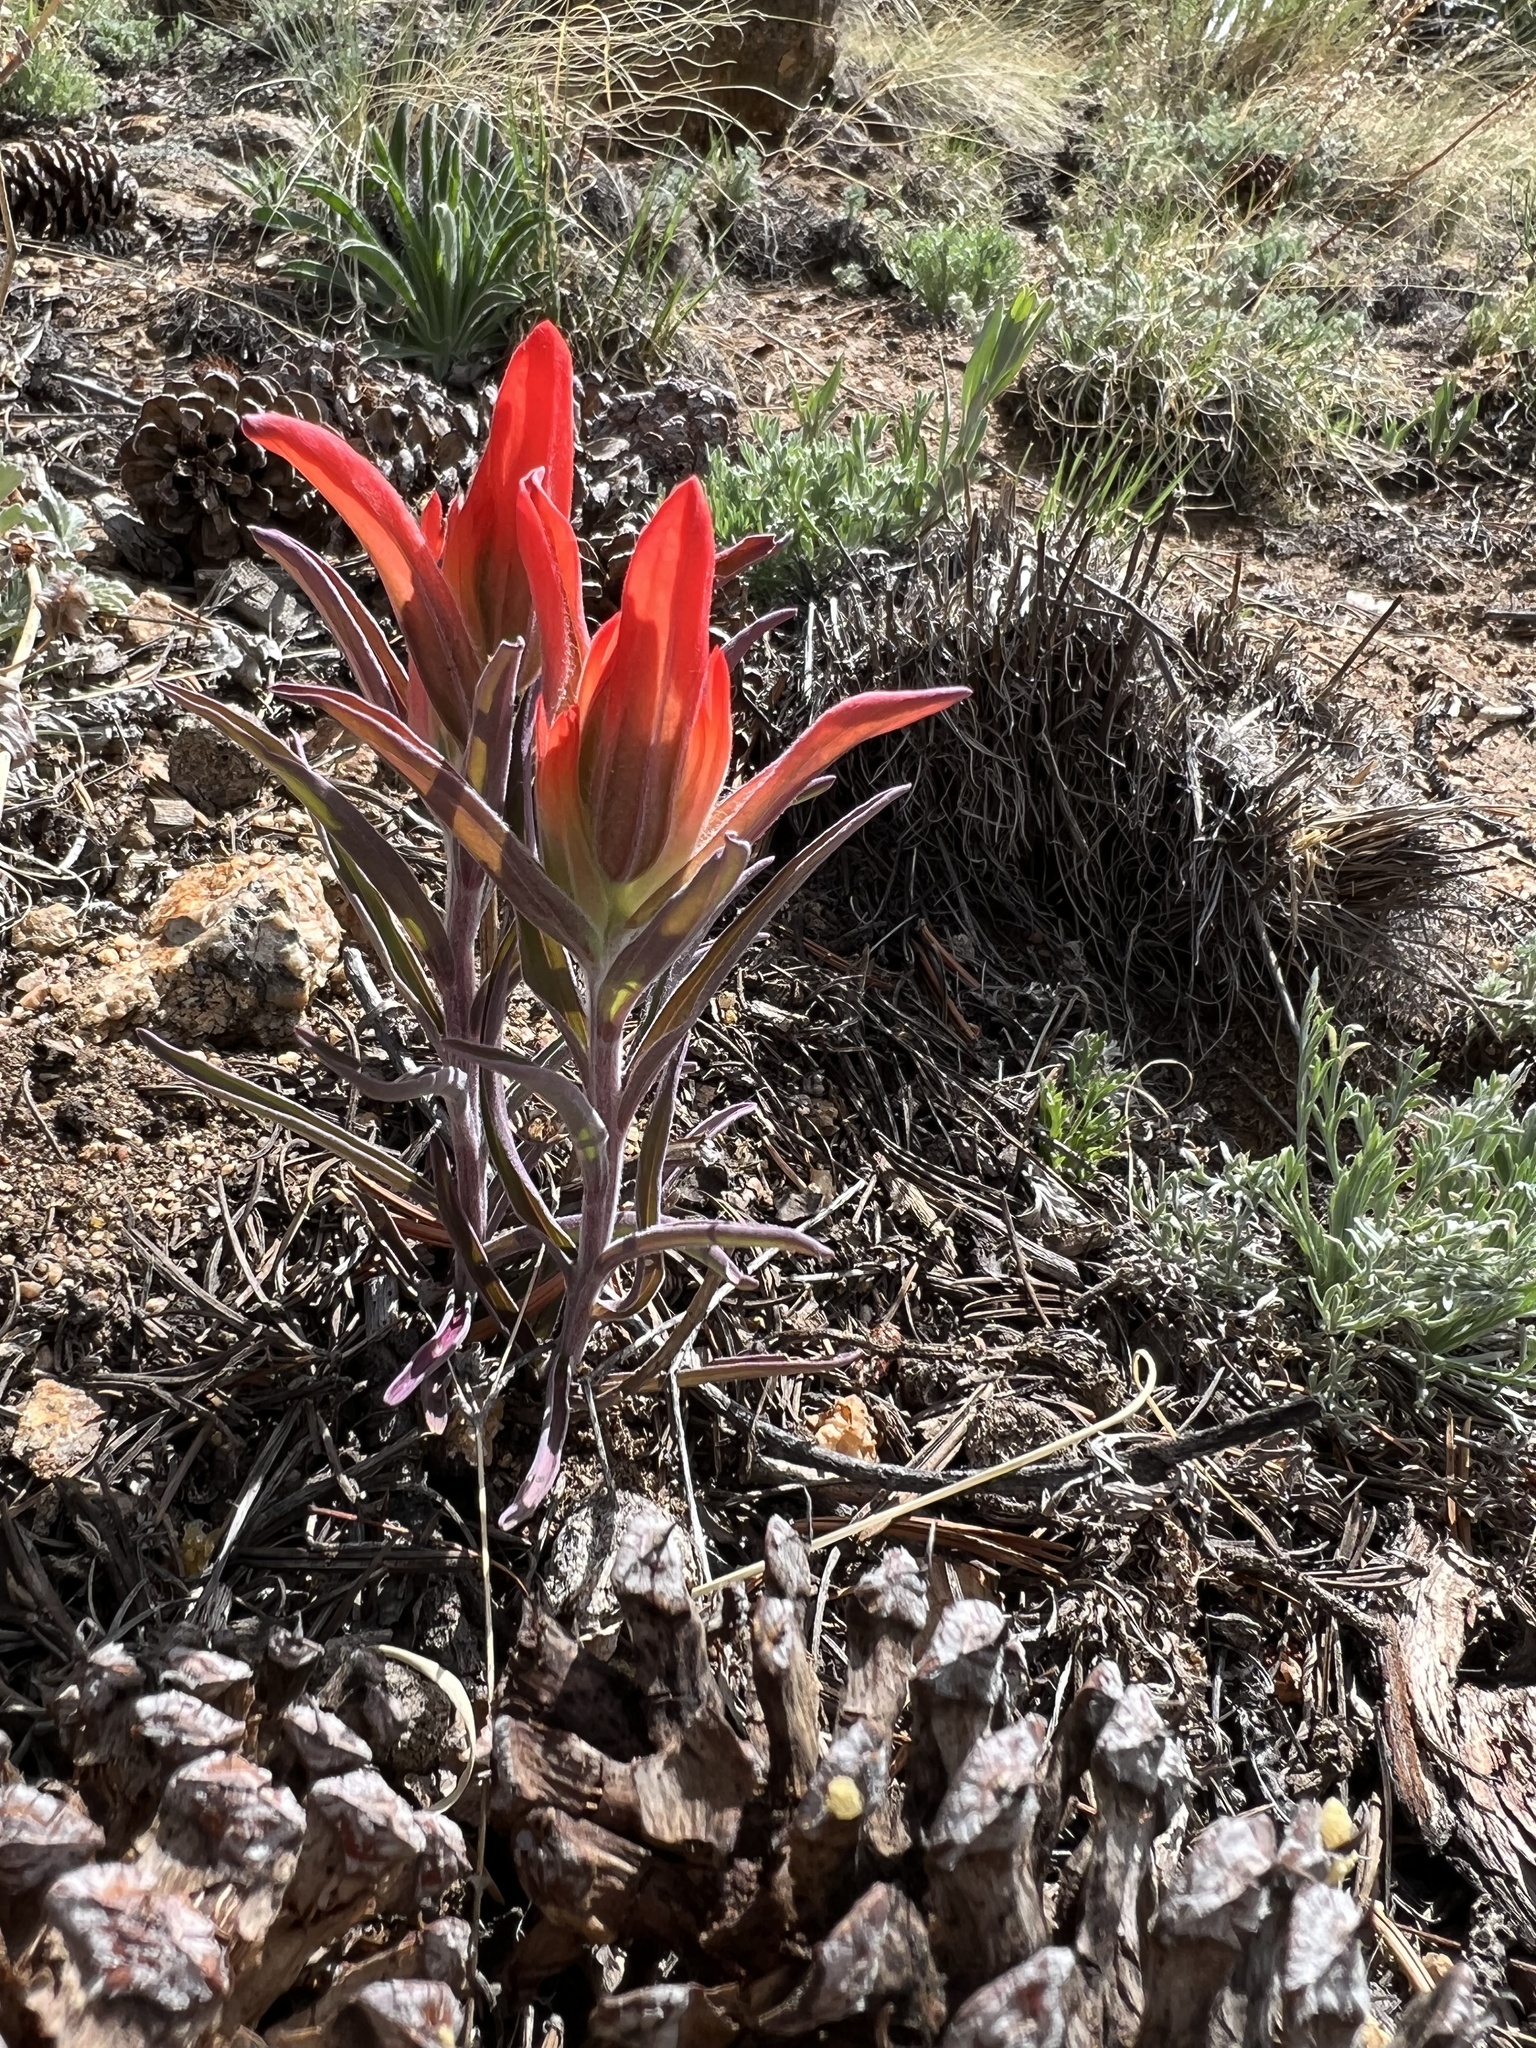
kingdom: Plantae
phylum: Tracheophyta
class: Magnoliopsida
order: Lamiales
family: Orobanchaceae
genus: Castilleja
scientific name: Castilleja integra
